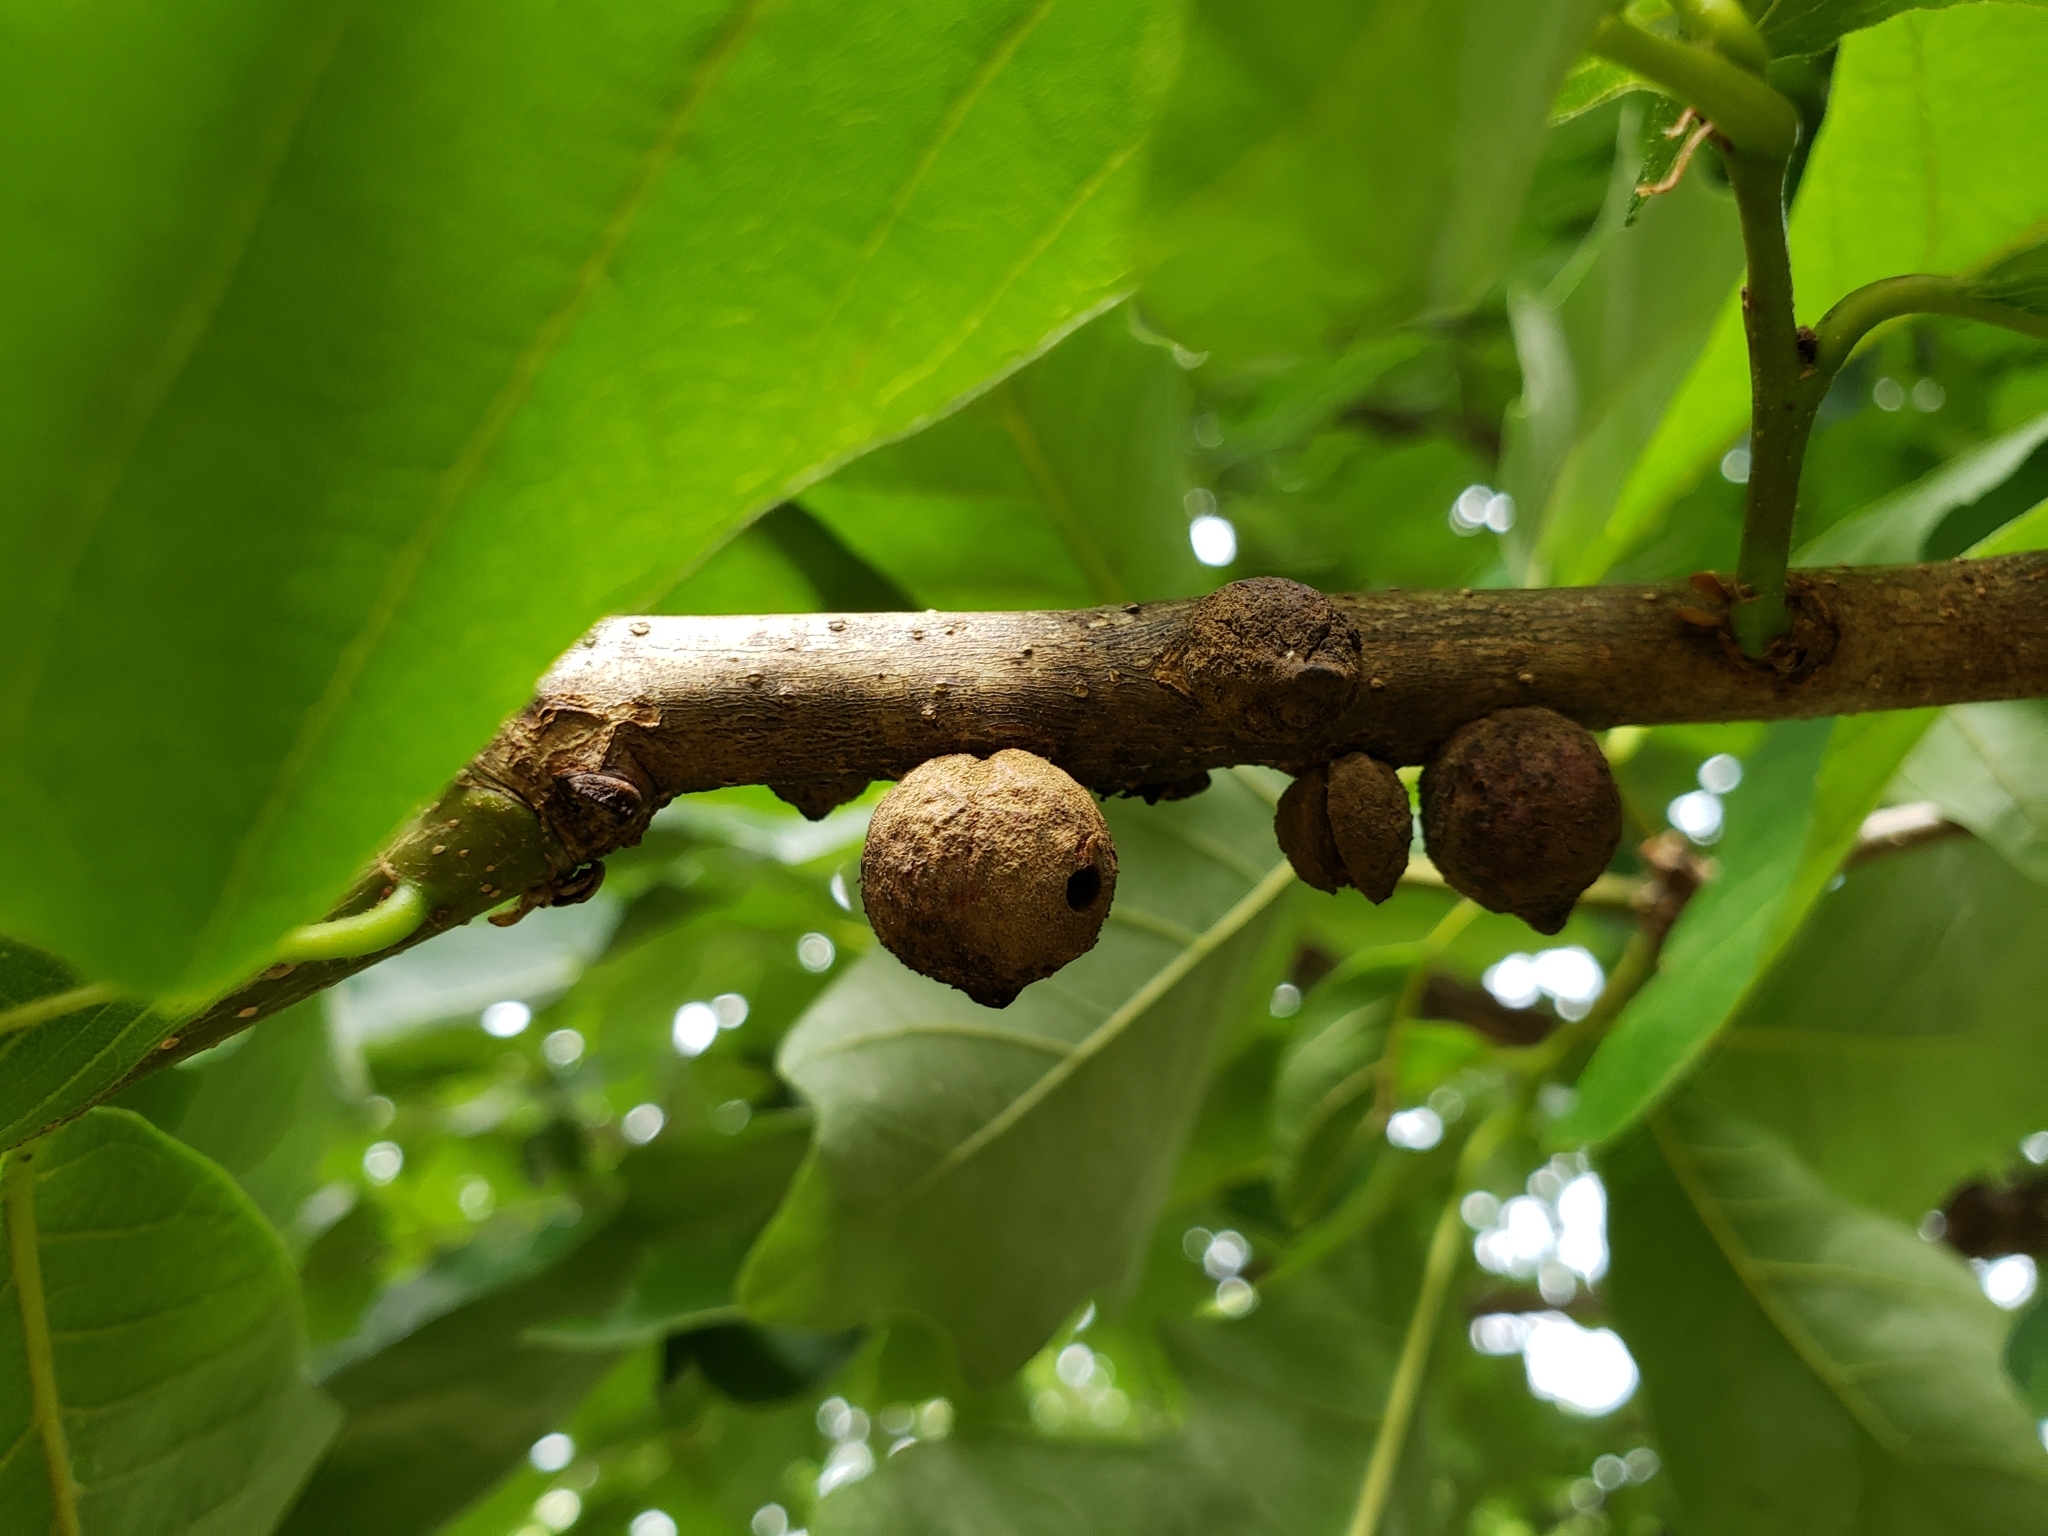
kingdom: Animalia
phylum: Arthropoda
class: Insecta
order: Hymenoptera
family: Cynipidae
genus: Disholcaspis
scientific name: Disholcaspis
